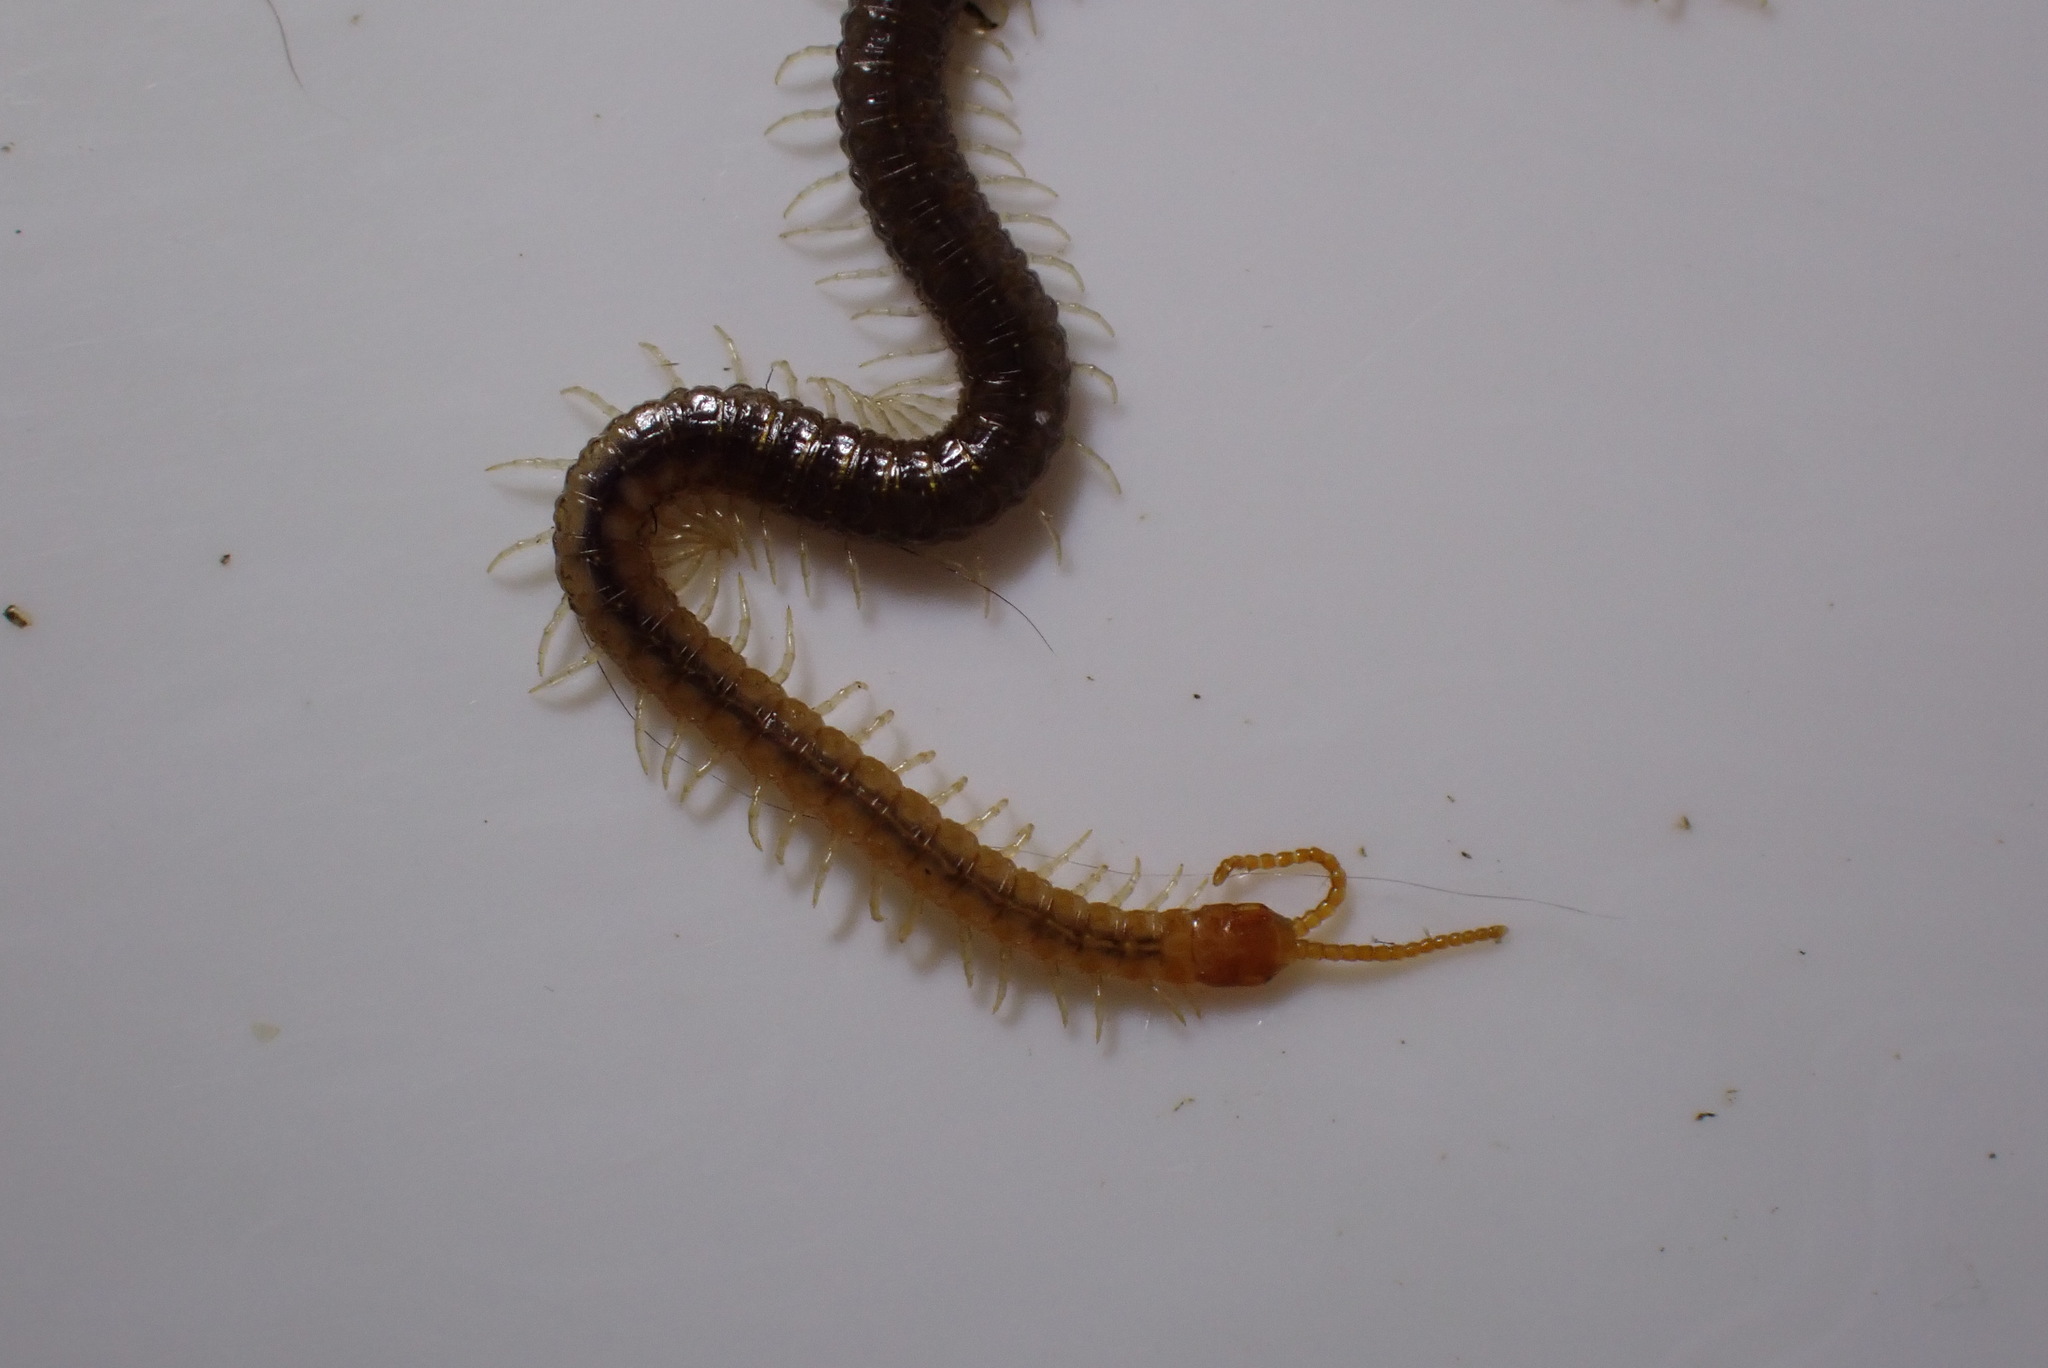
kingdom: Animalia
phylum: Arthropoda
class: Chilopoda
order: Geophilomorpha
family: Geophilidae
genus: Geophilus
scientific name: Geophilus carpophagus
